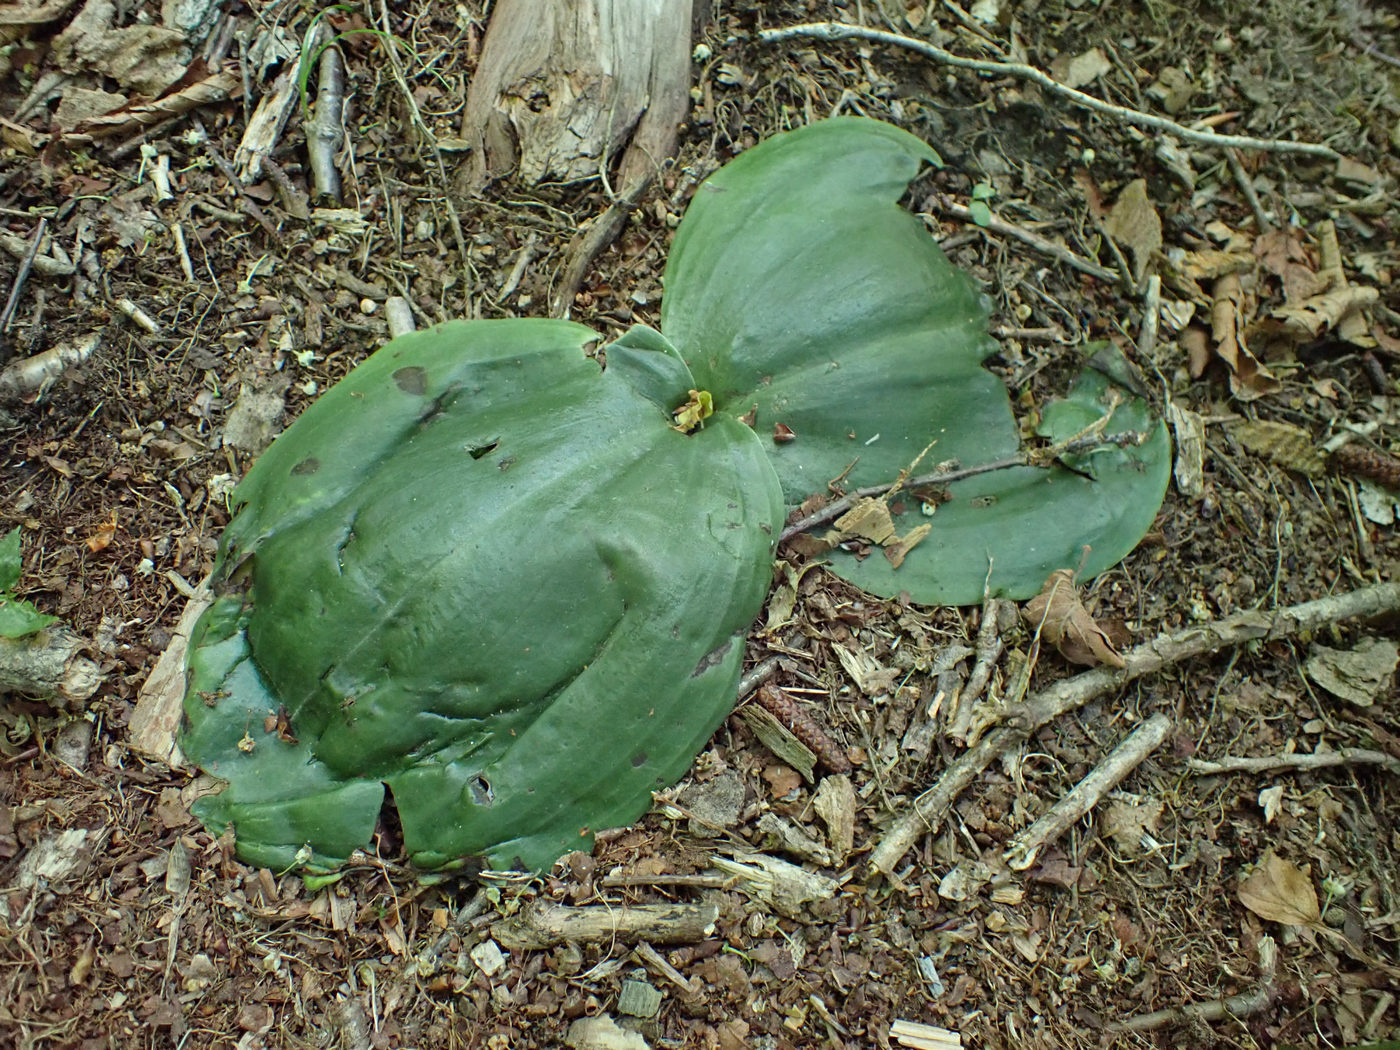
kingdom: Plantae
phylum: Tracheophyta
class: Liliopsida
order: Asparagales
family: Orchidaceae
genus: Platanthera
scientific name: Platanthera orbiculata
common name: Large round-leaved orchid
